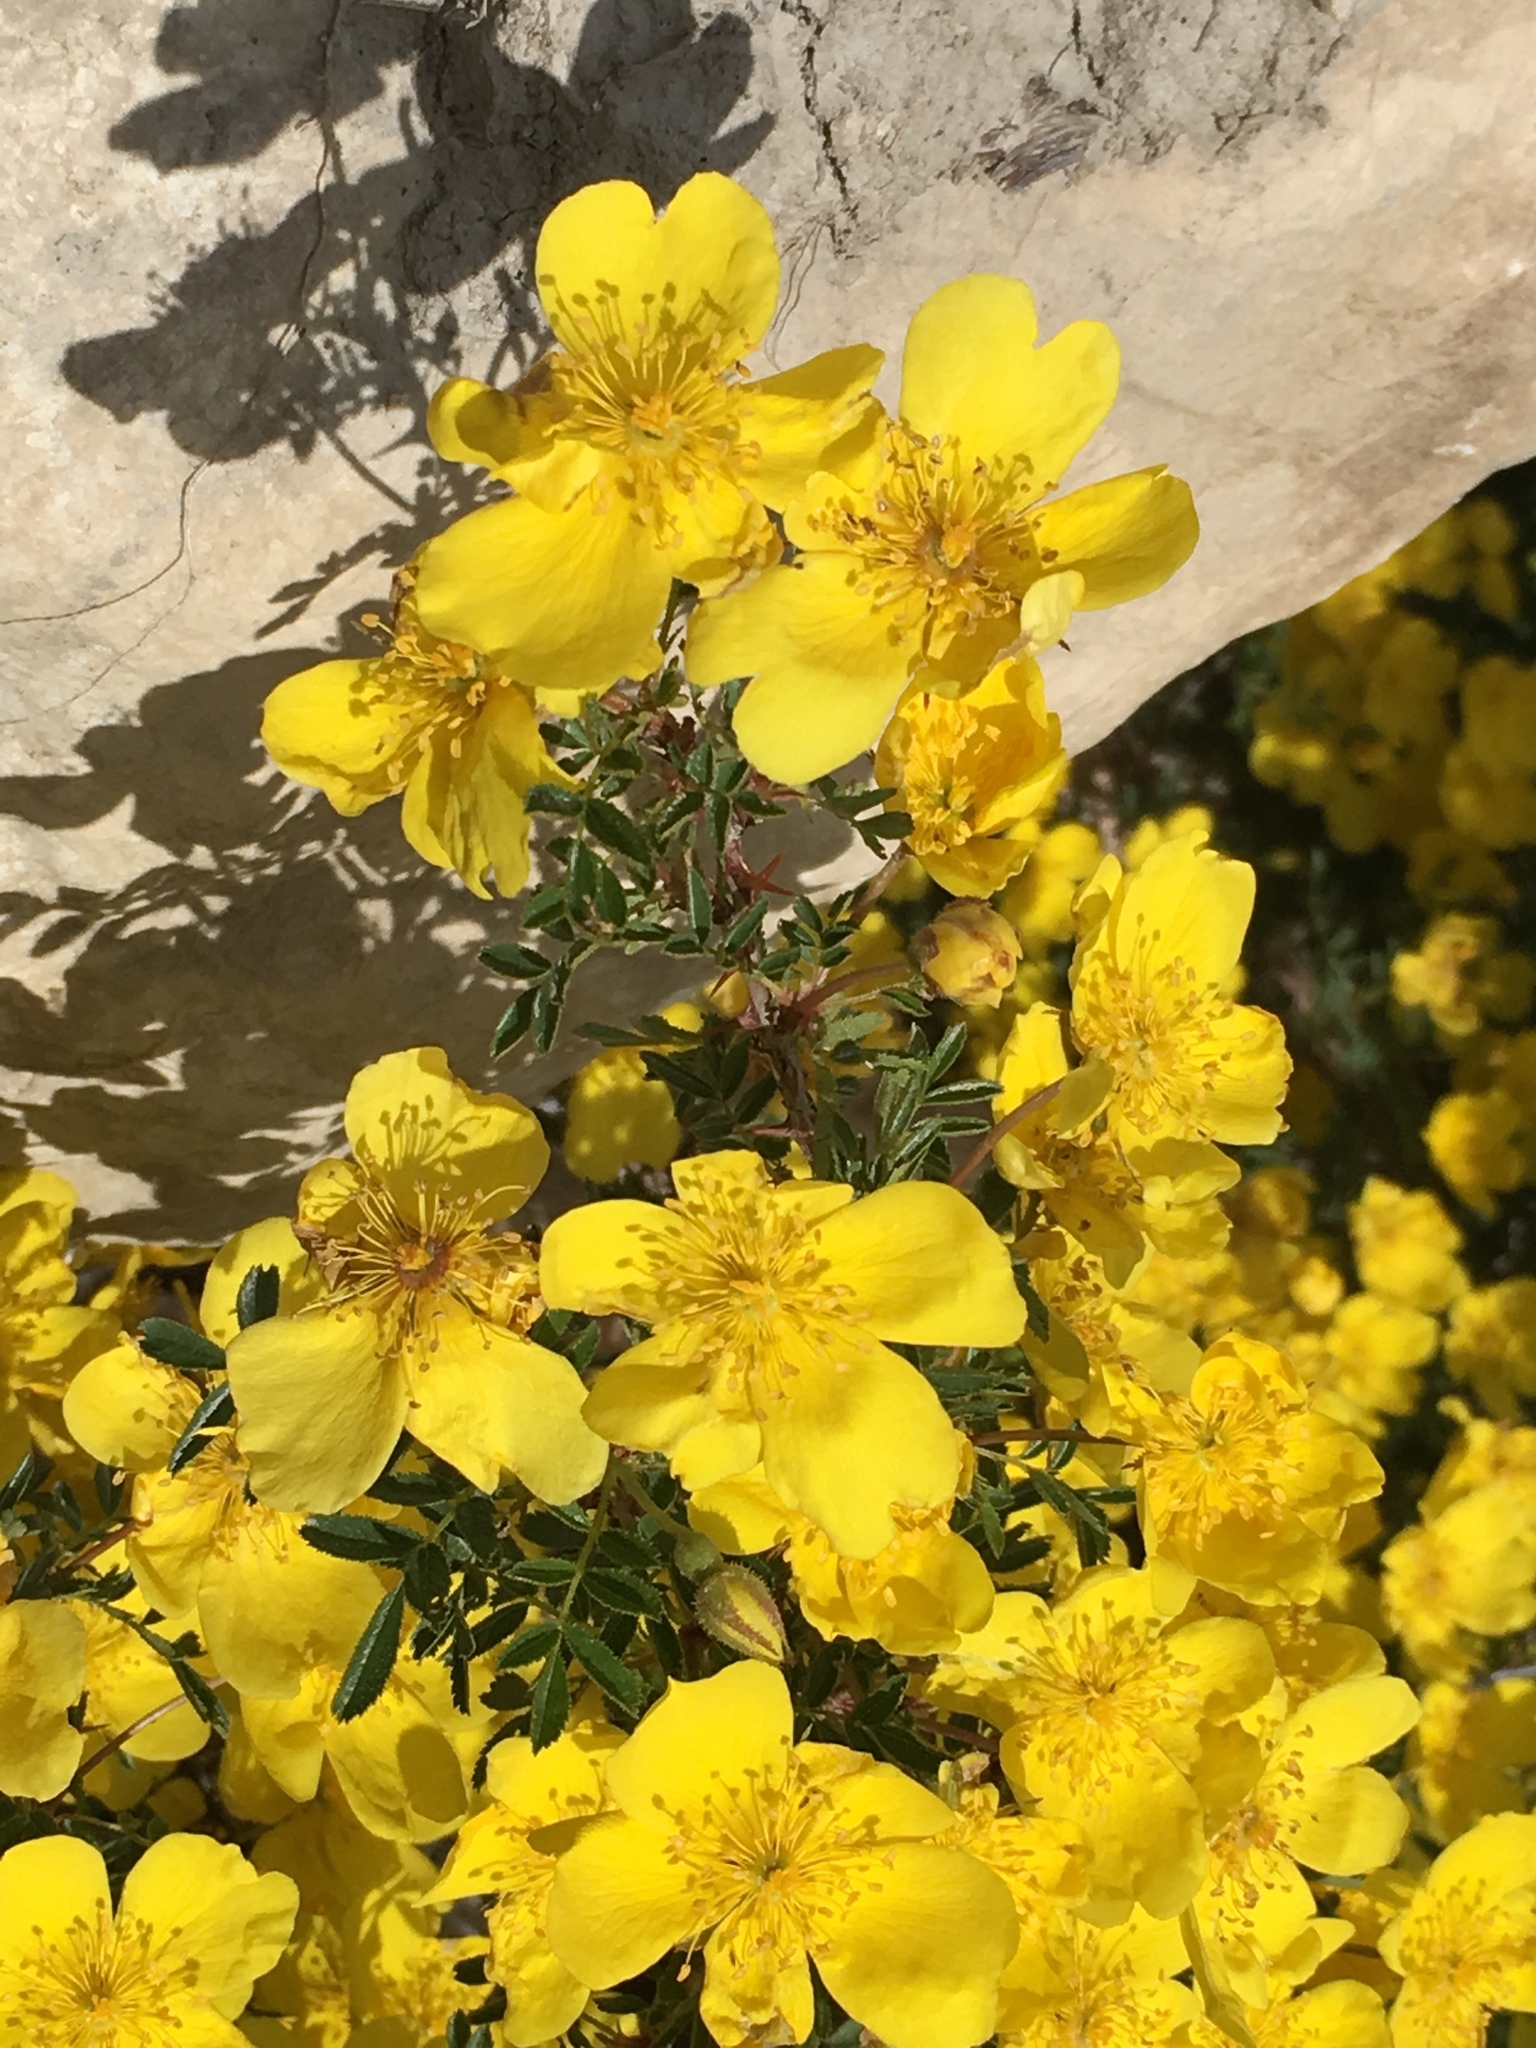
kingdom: Plantae
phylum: Tracheophyta
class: Magnoliopsida
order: Rosales
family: Rosaceae
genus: Rosa
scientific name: Rosa kokanica
